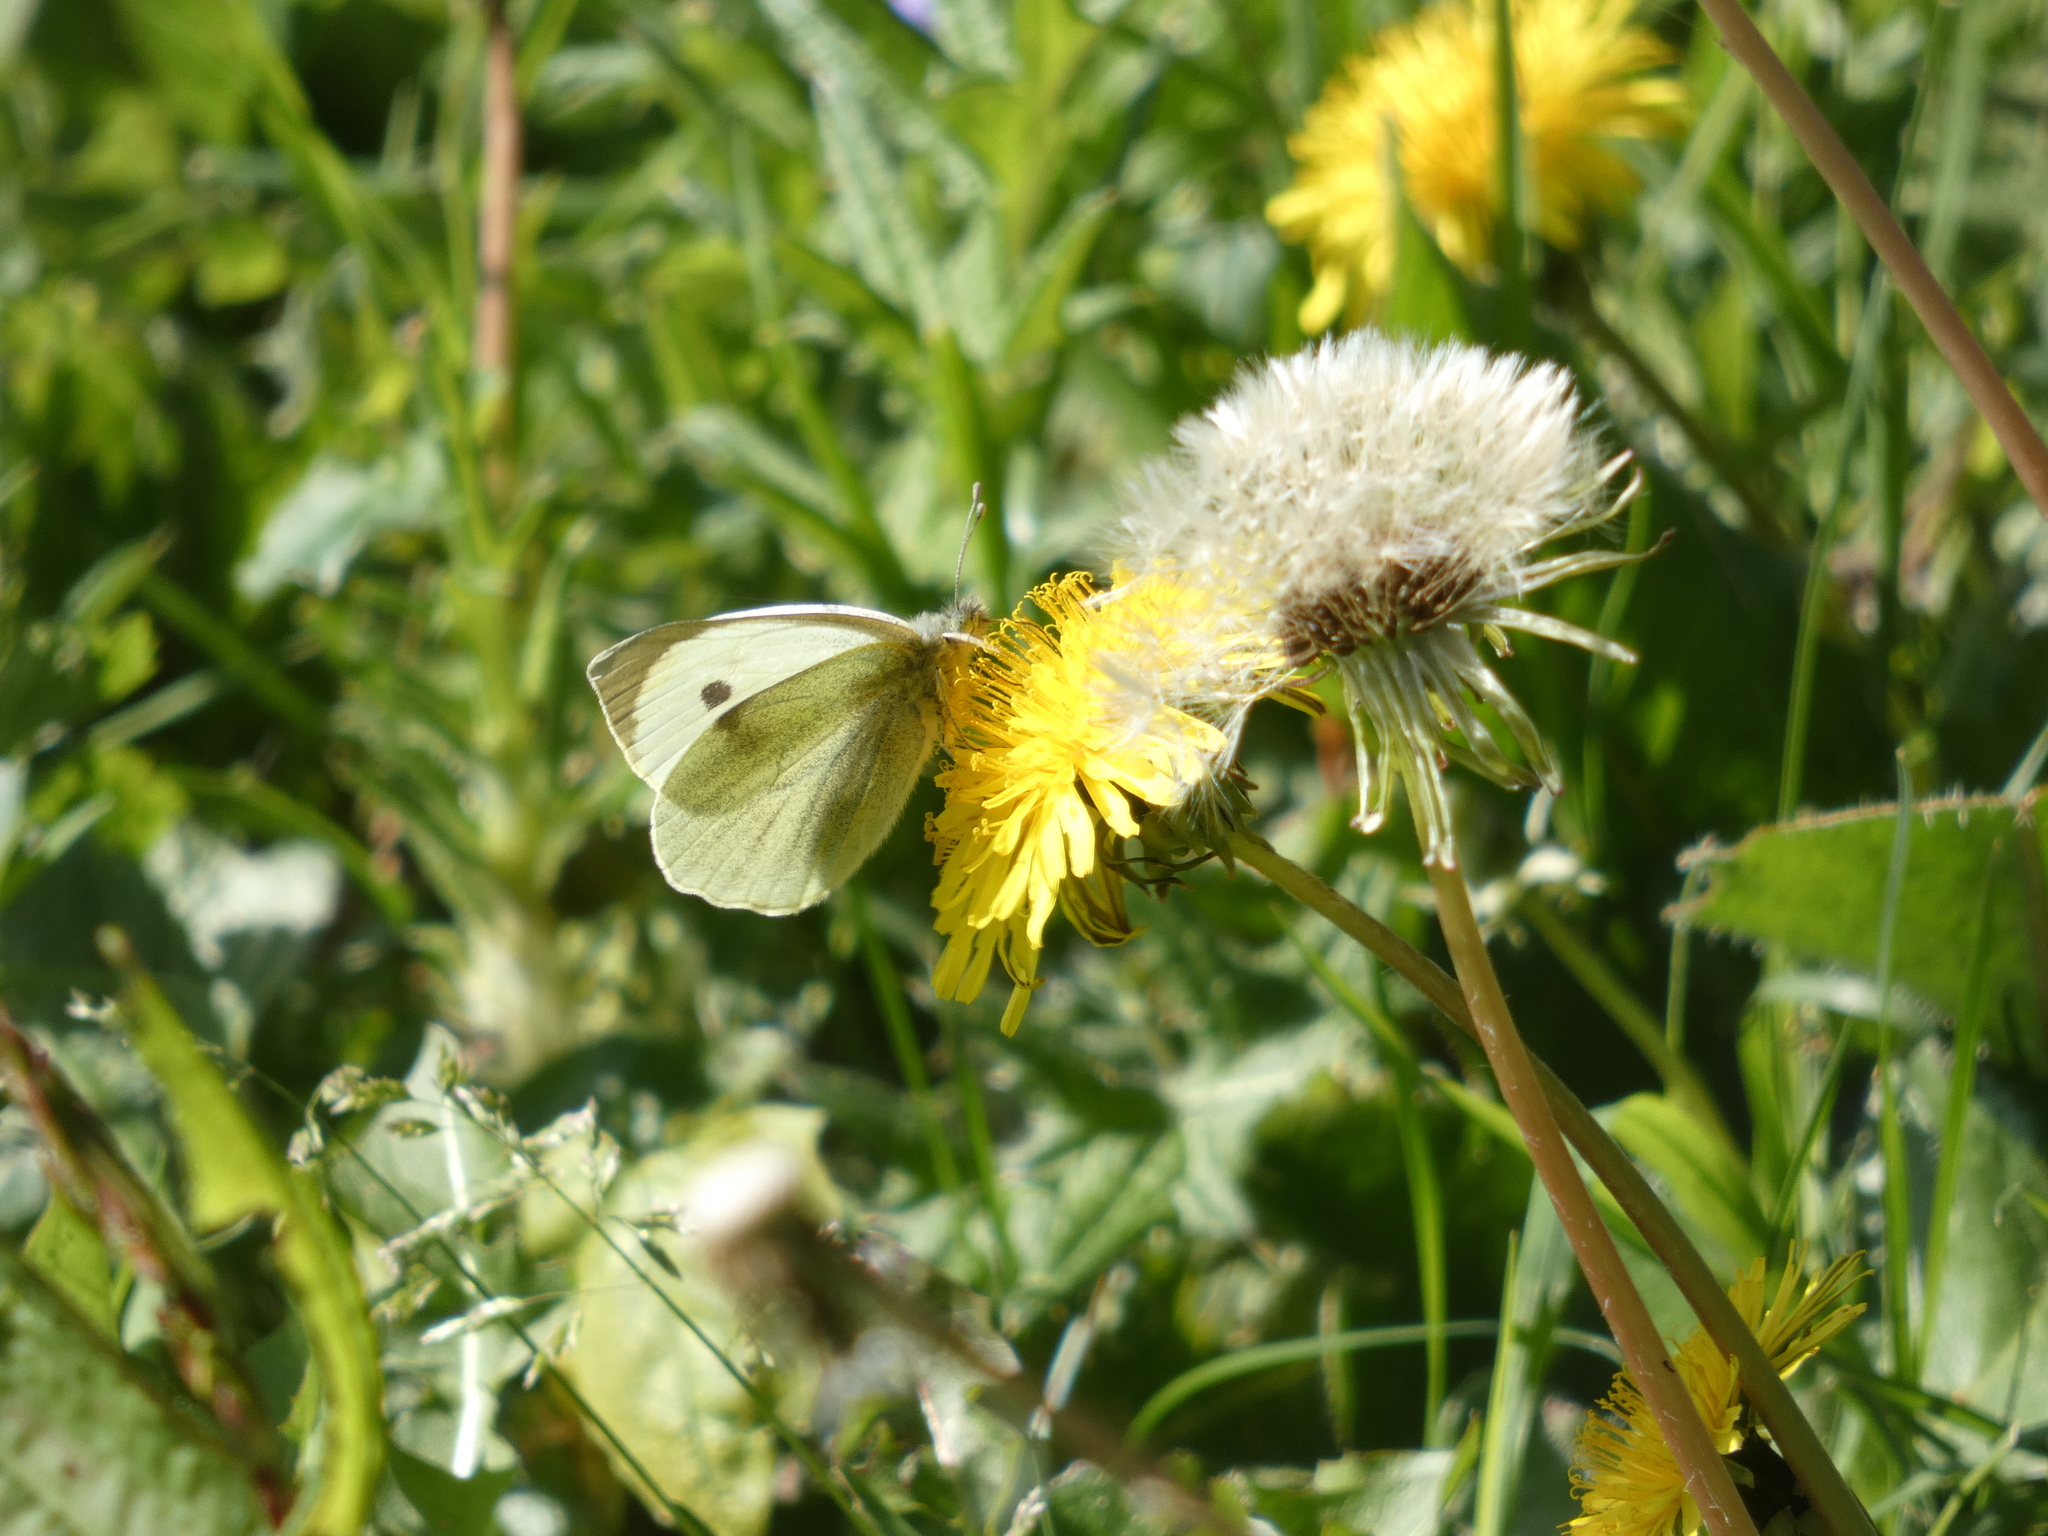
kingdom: Animalia
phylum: Arthropoda
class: Insecta
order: Lepidoptera
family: Pieridae
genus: Pieris
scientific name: Pieris brassicae
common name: Large white
